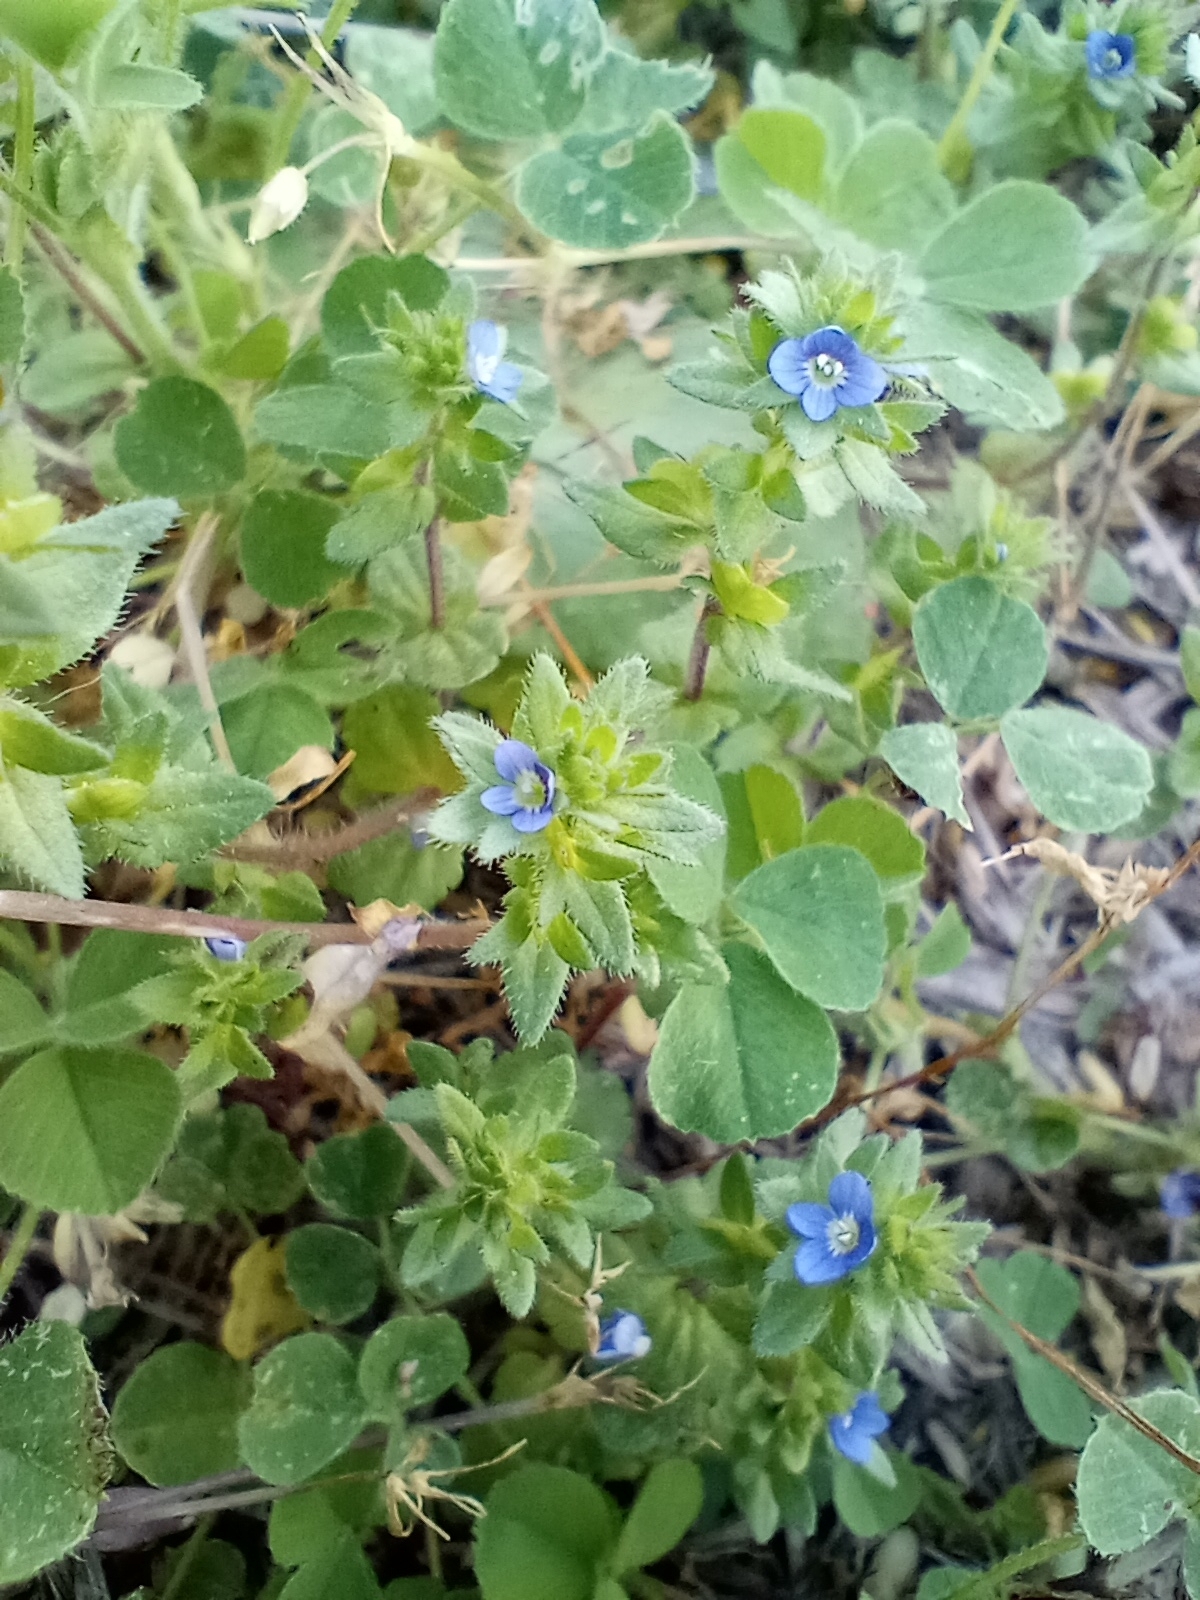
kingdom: Plantae
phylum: Tracheophyta
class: Magnoliopsida
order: Lamiales
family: Plantaginaceae
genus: Veronica
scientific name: Veronica arvensis
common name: Corn speedwell
